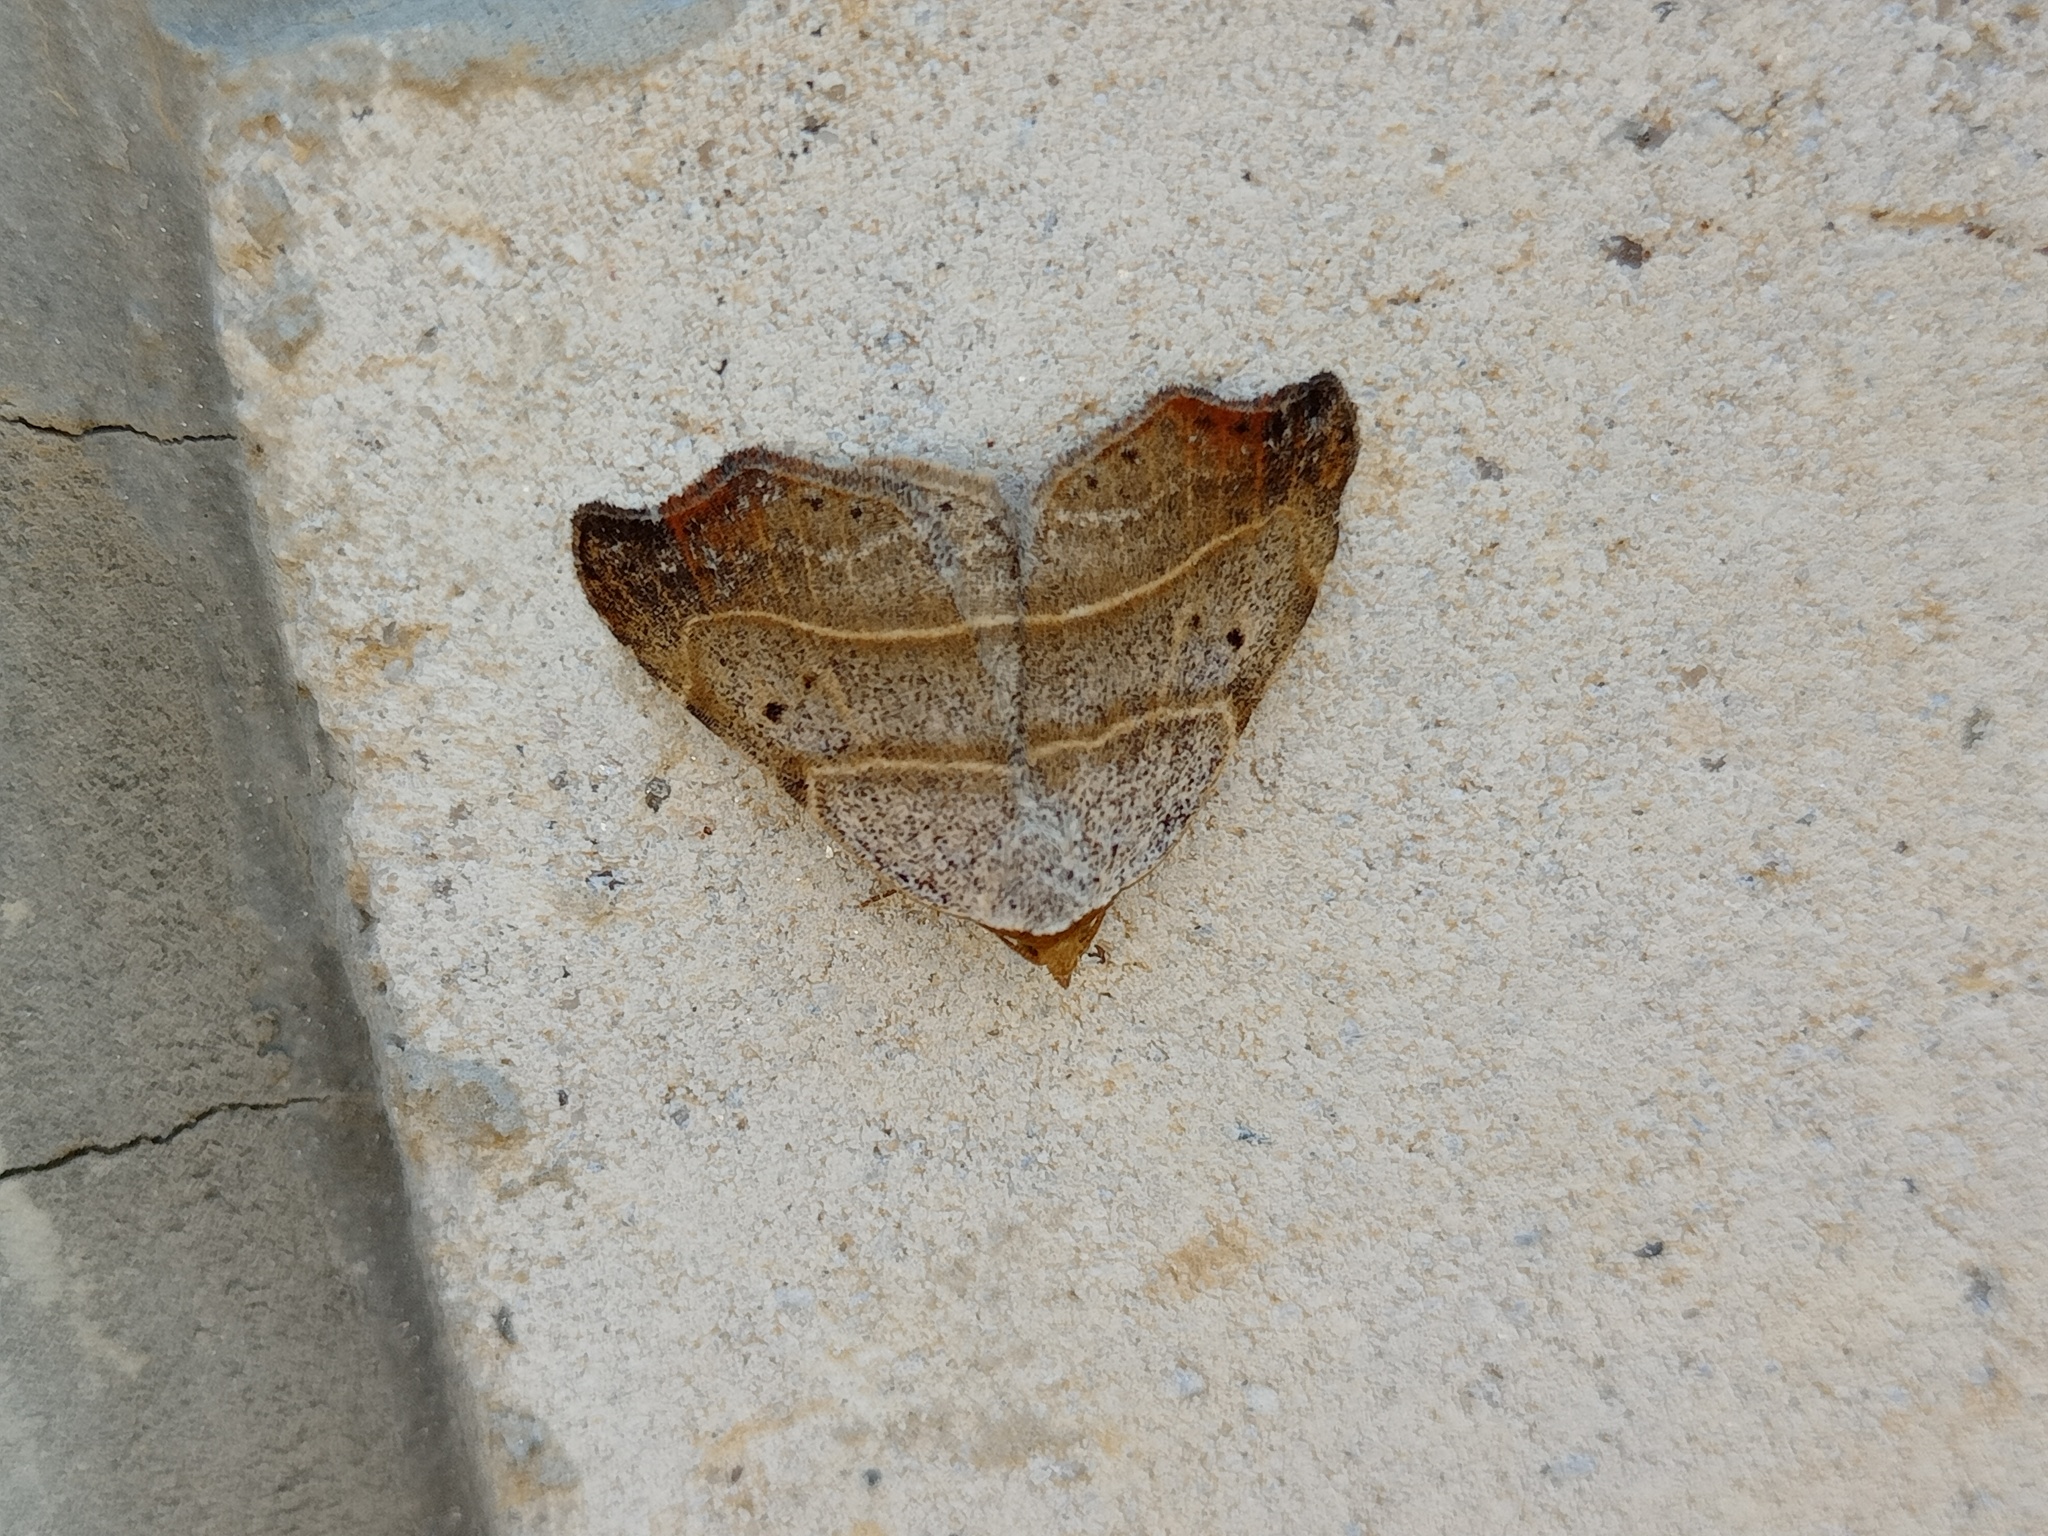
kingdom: Animalia
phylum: Arthropoda
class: Insecta
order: Lepidoptera
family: Erebidae
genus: Laspeyria
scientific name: Laspeyria flexula
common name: Beautiful hook-tip
